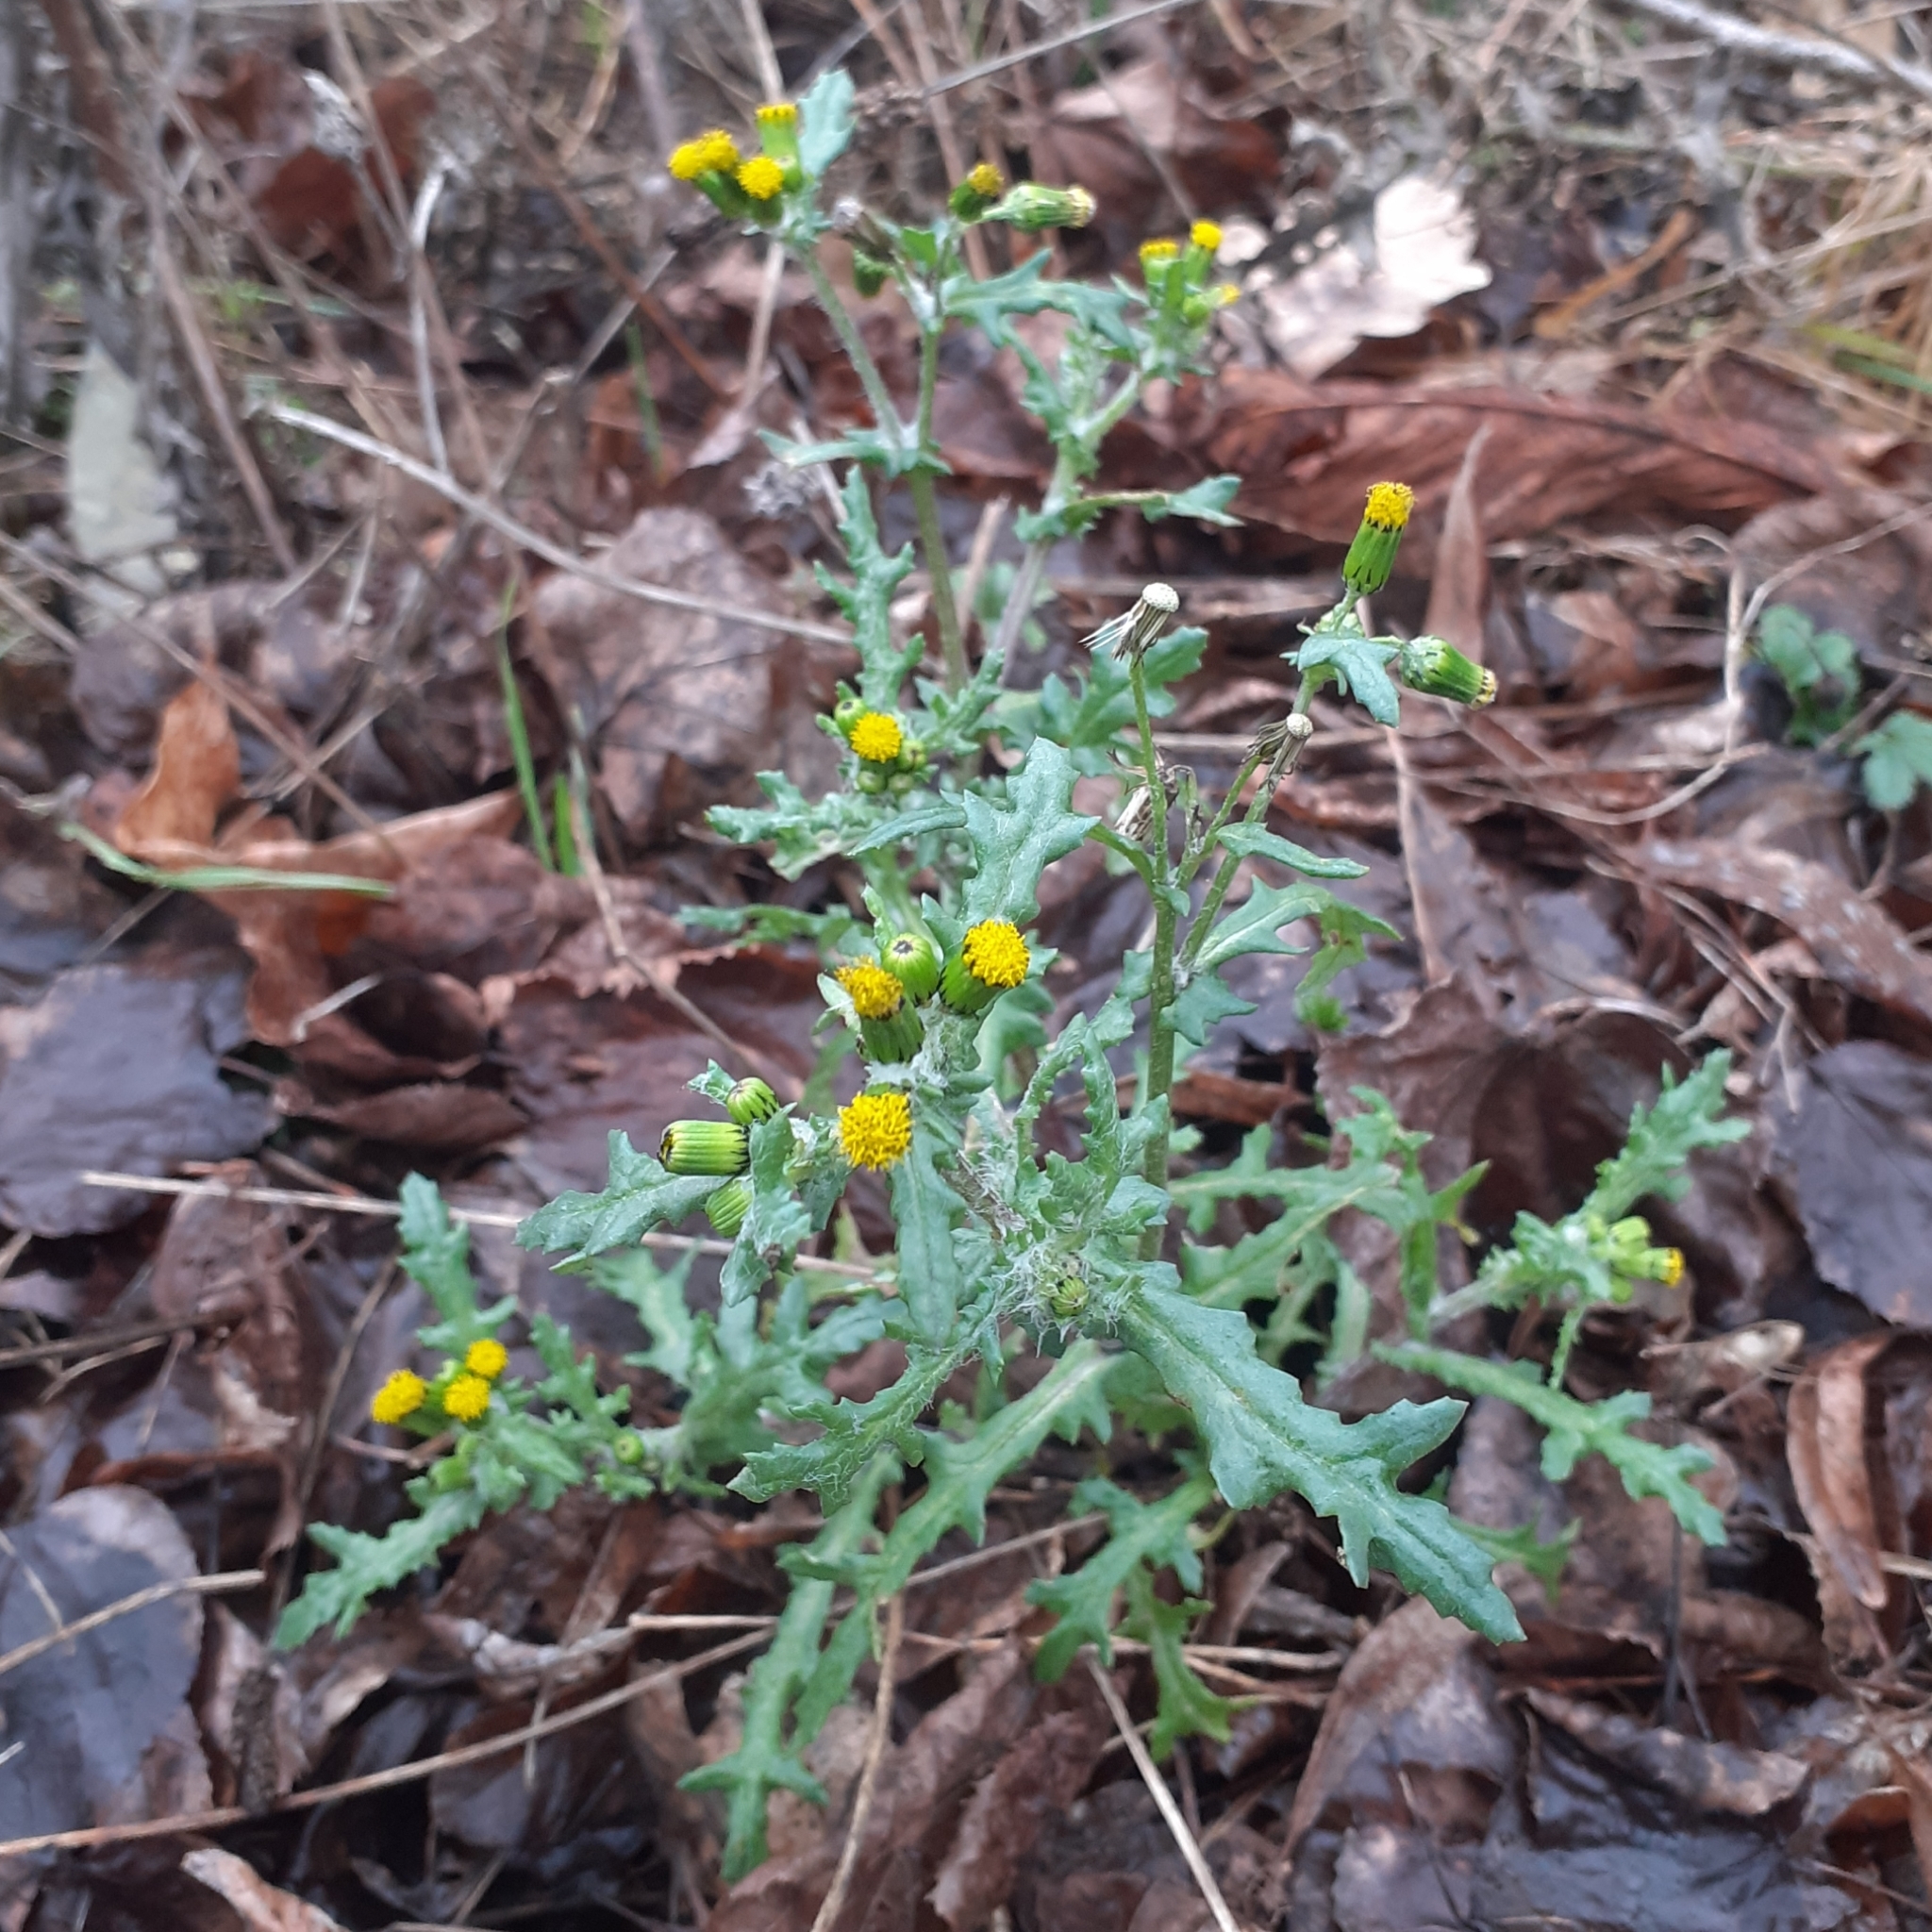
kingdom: Plantae
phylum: Tracheophyta
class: Magnoliopsida
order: Asterales
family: Asteraceae
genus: Senecio
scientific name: Senecio vulgaris
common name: Old-man-in-the-spring
